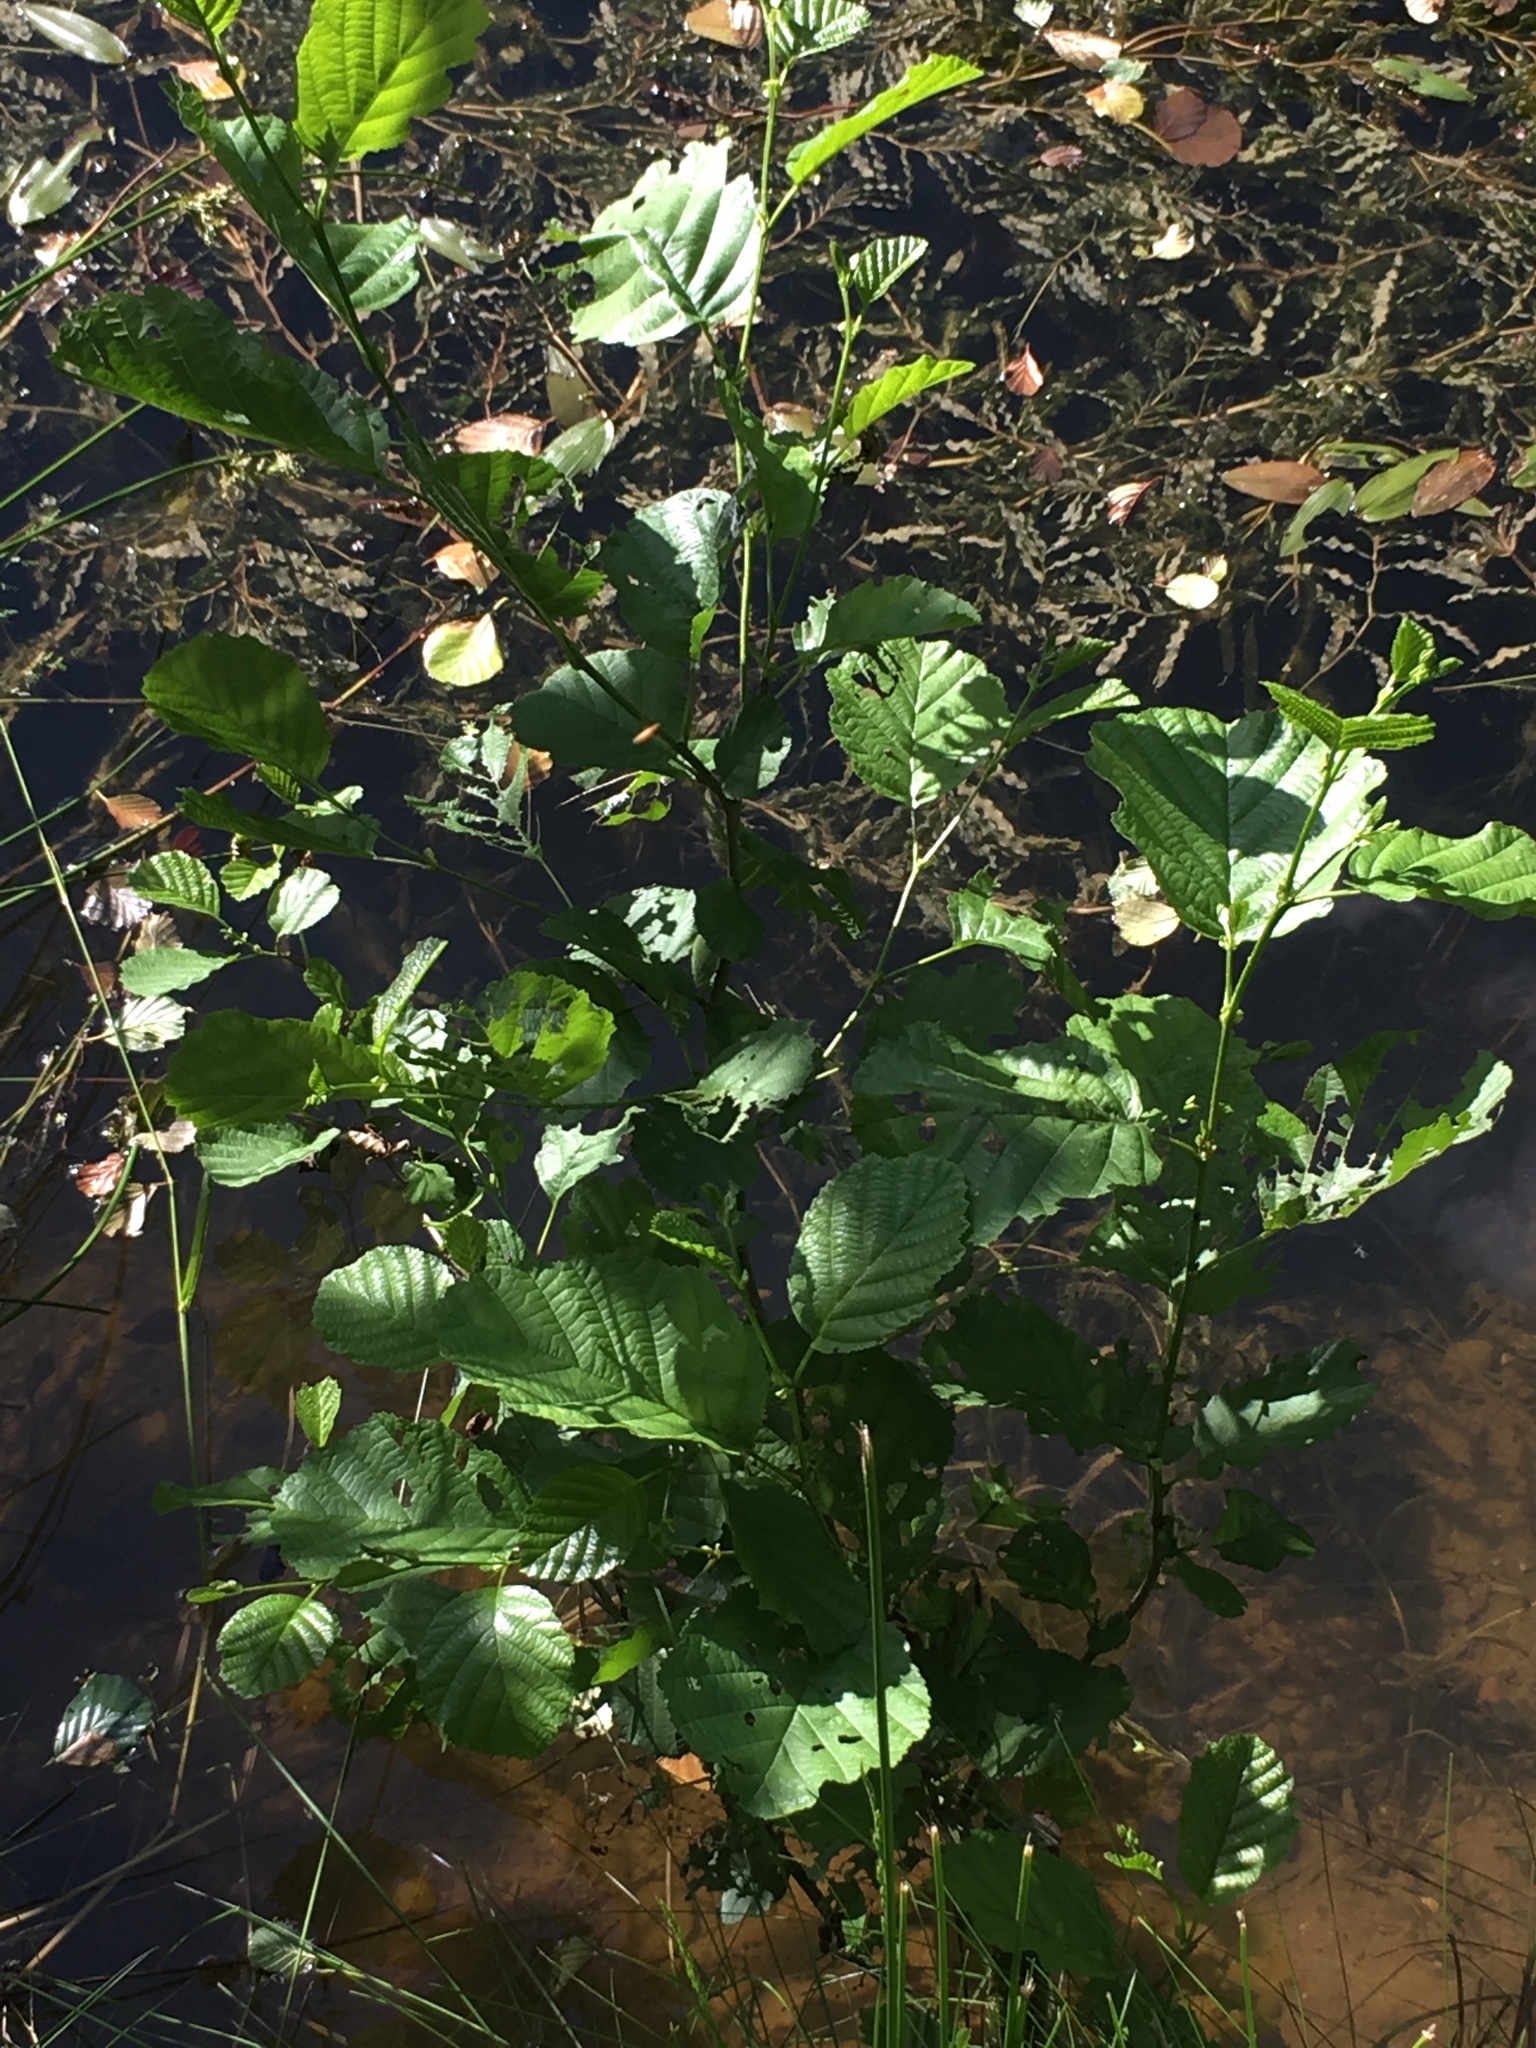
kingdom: Plantae
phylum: Tracheophyta
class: Magnoliopsida
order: Fagales
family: Betulaceae
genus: Alnus
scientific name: Alnus glutinosa
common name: Black alder
